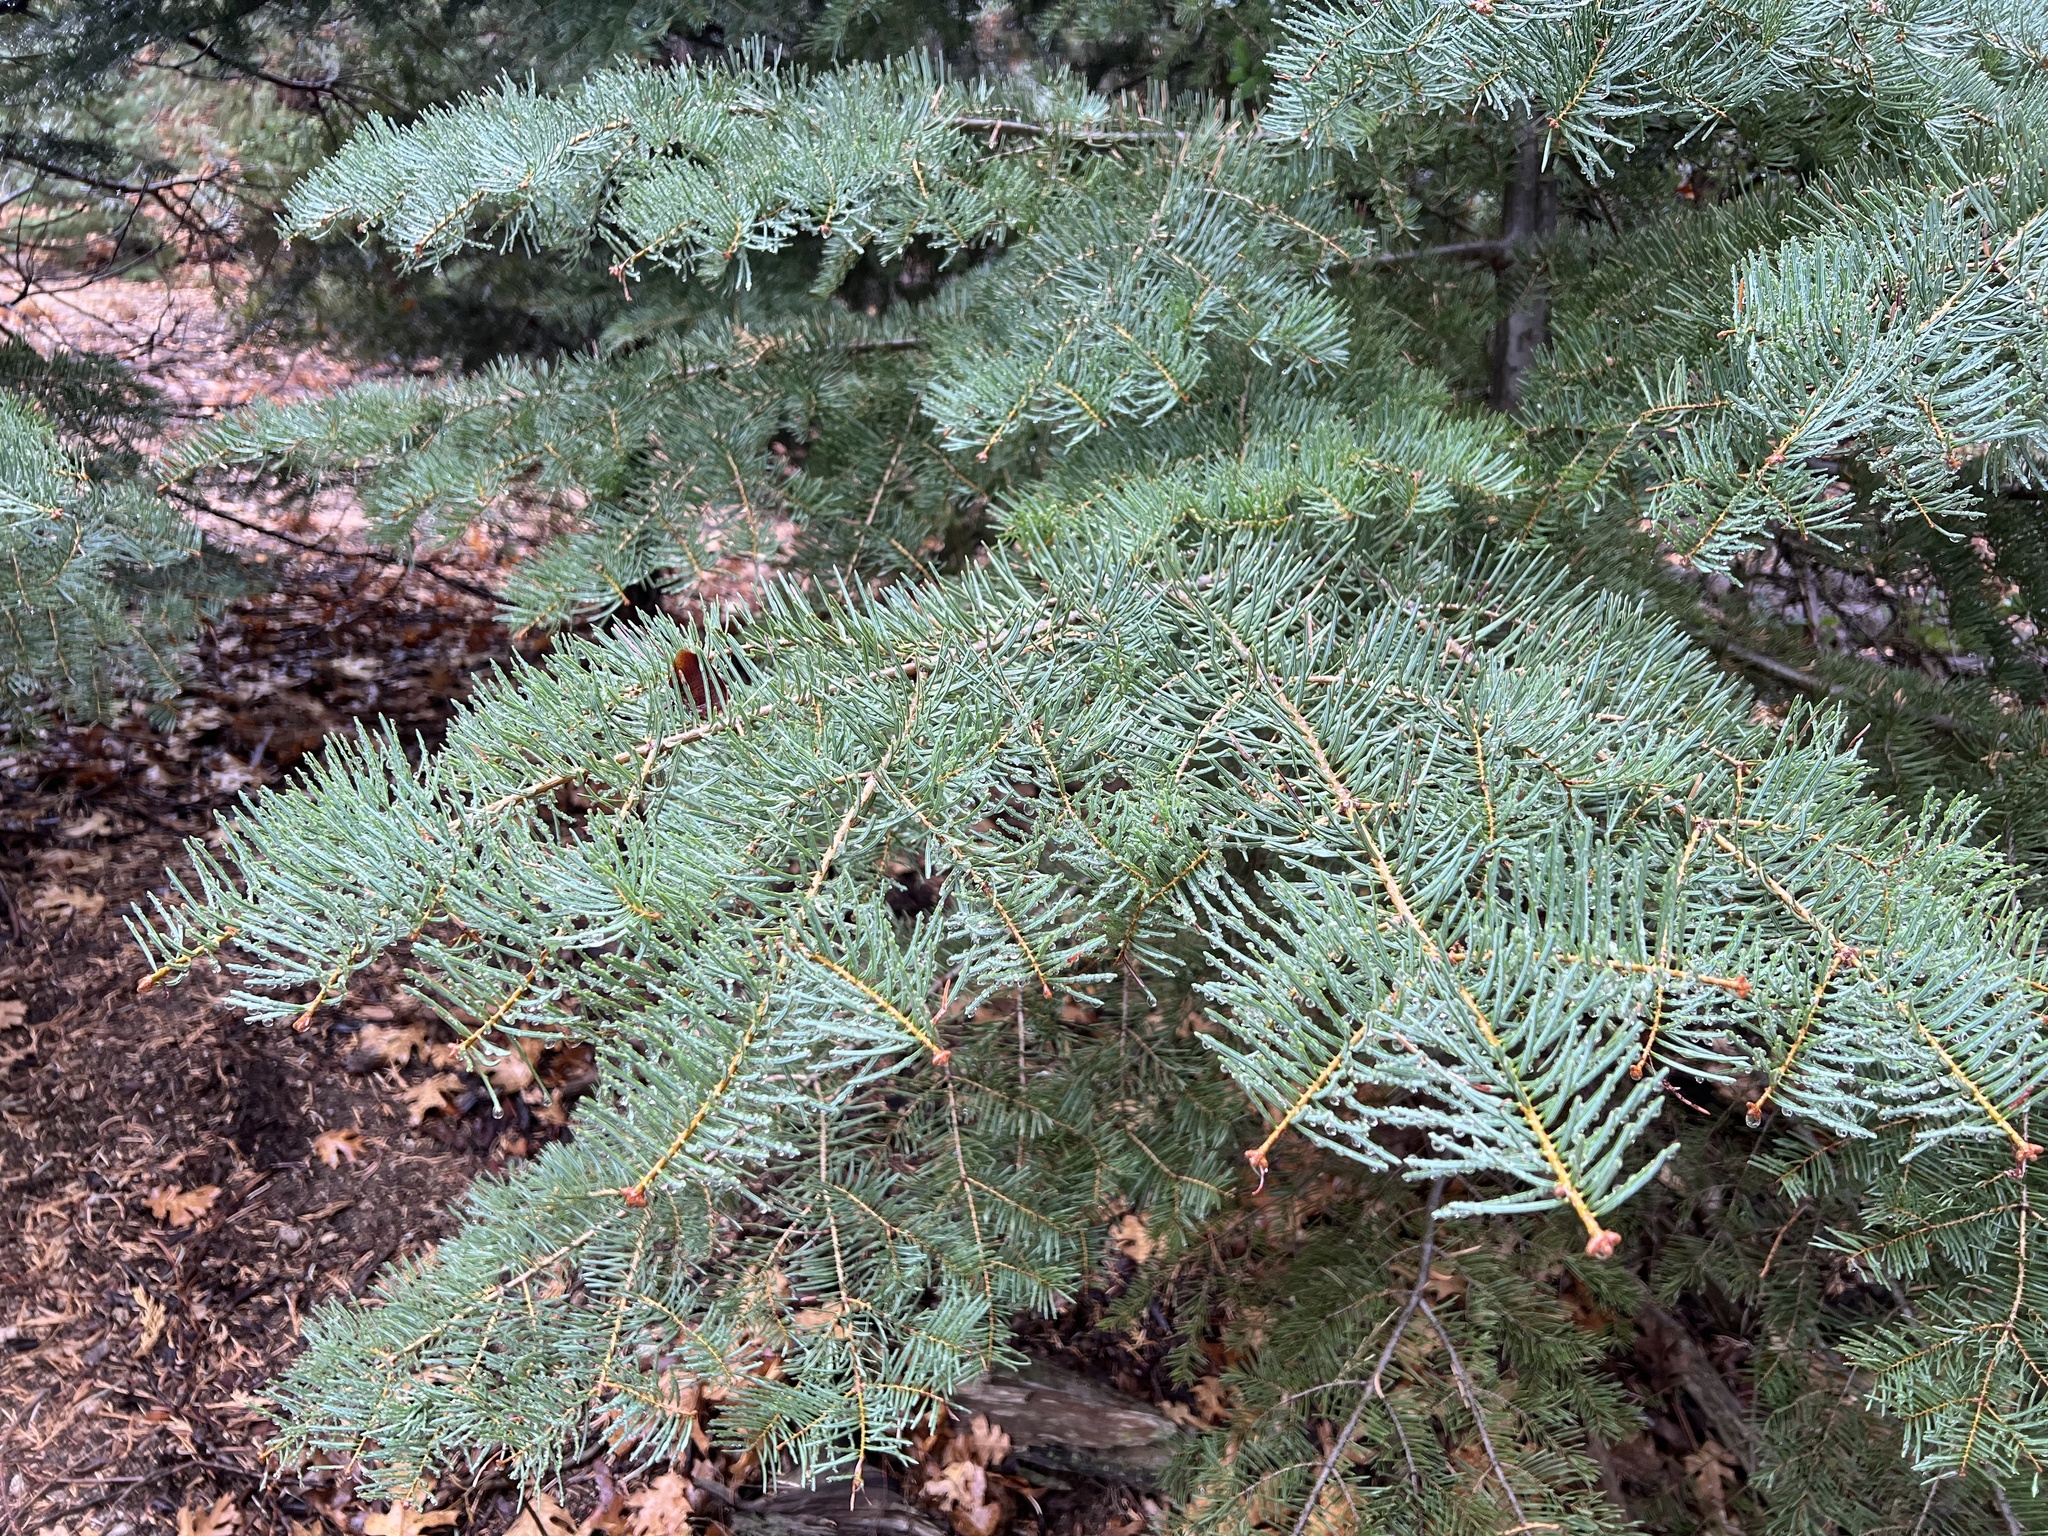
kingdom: Plantae
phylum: Tracheophyta
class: Pinopsida
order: Pinales
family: Pinaceae
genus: Abies
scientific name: Abies concolor
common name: Colorado fir
